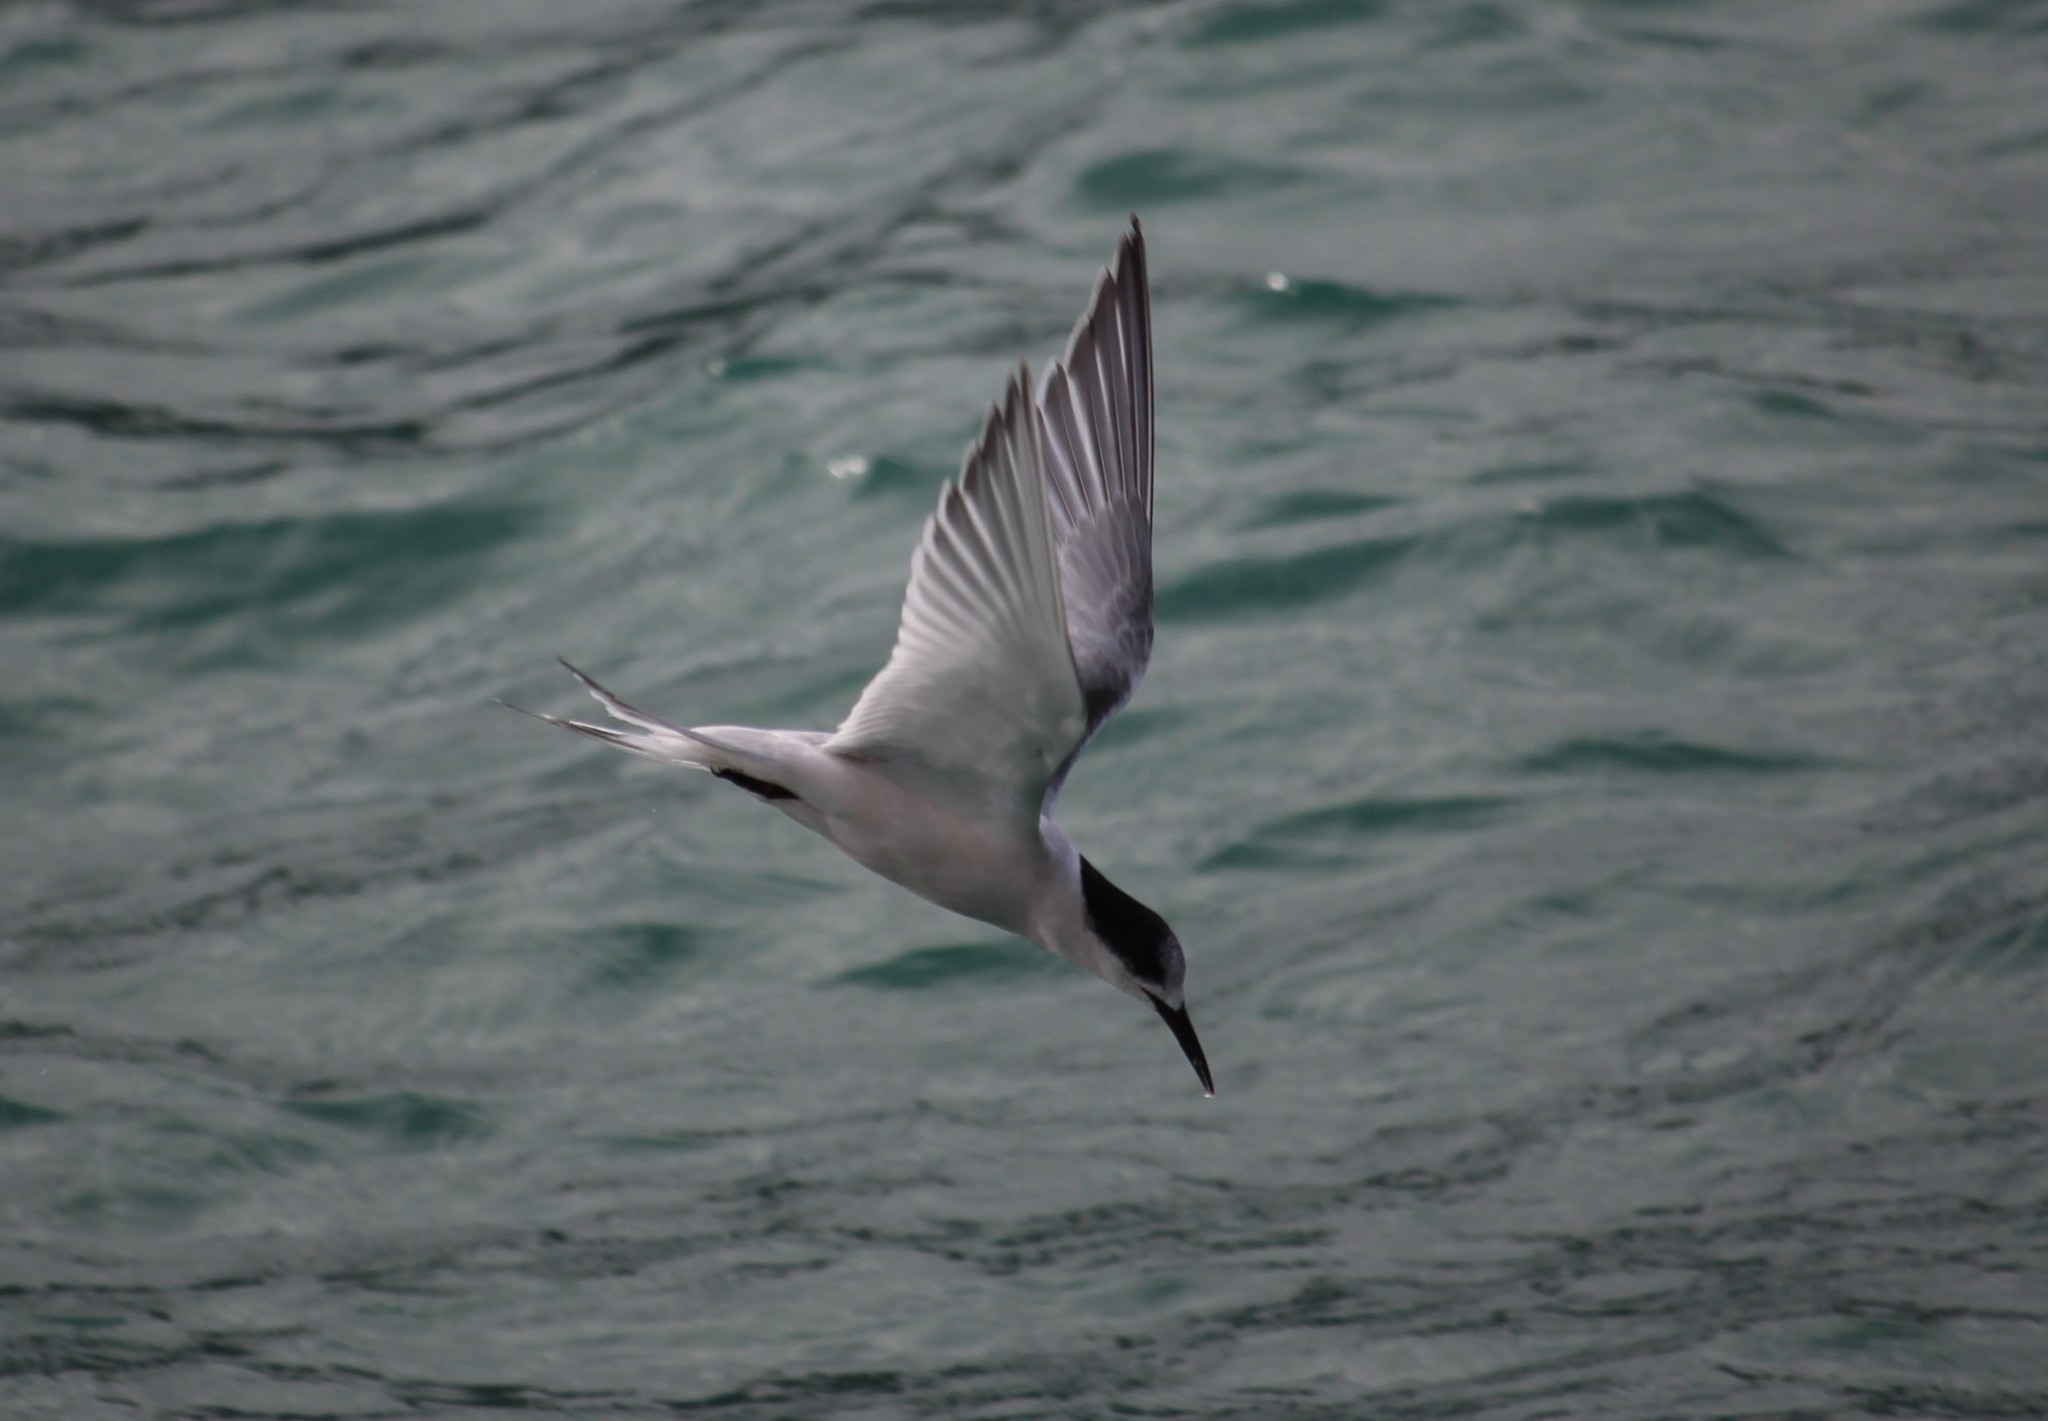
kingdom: Animalia
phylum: Chordata
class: Aves
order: Charadriiformes
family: Laridae
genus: Sterna
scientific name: Sterna striata
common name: White-fronted tern
